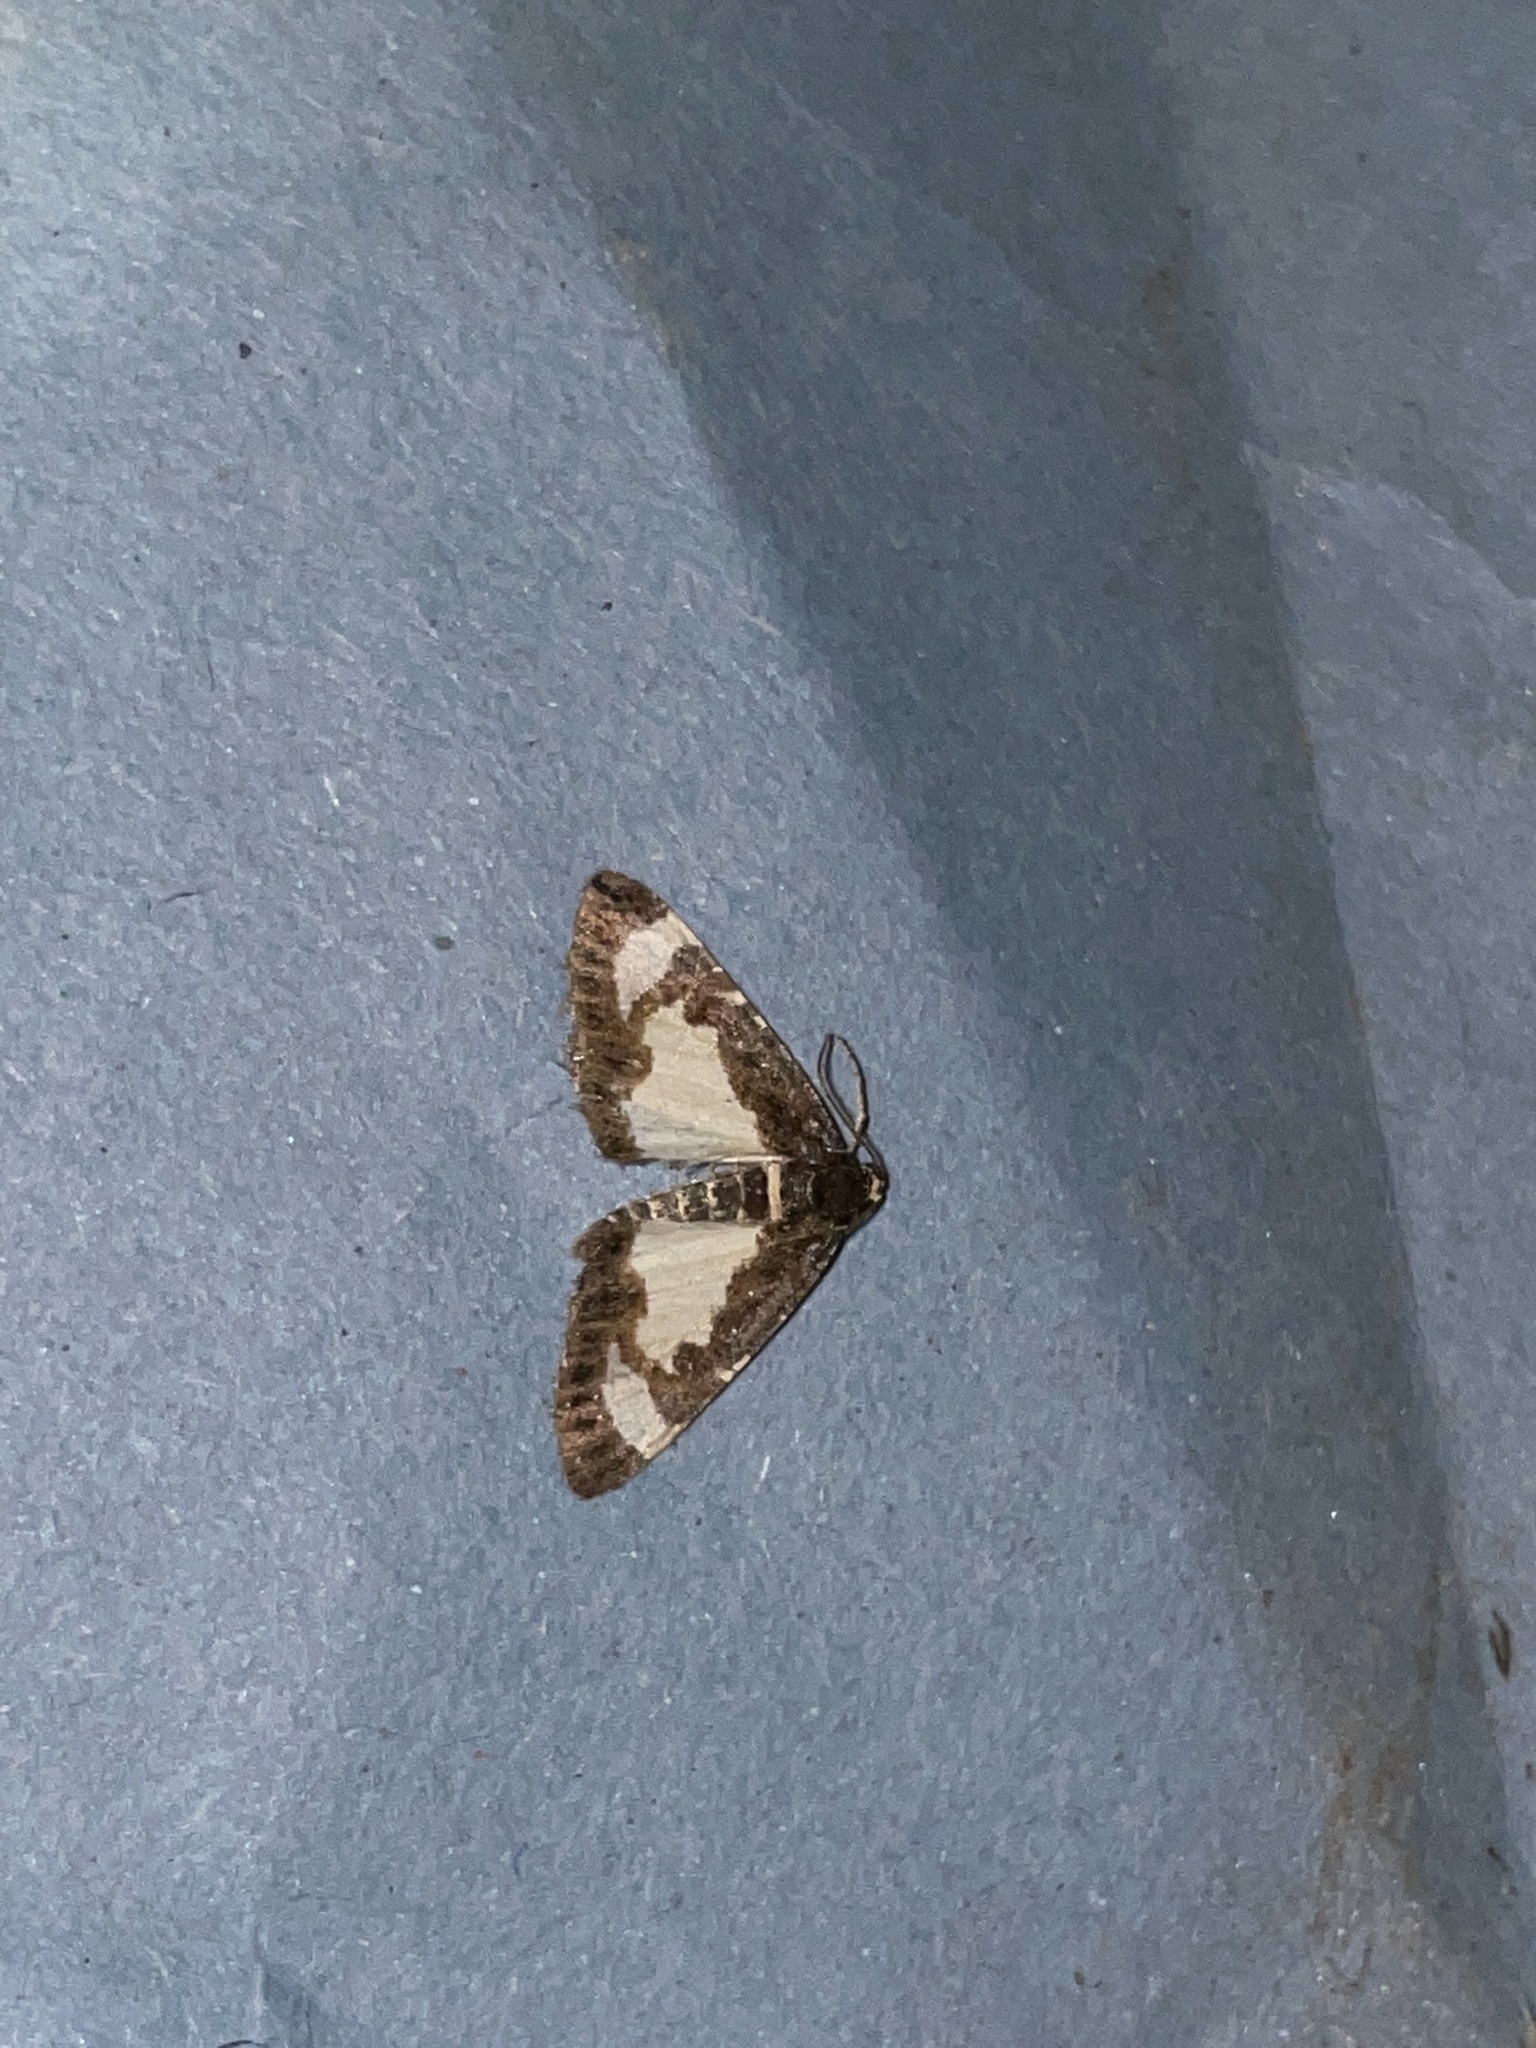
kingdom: Animalia
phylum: Arthropoda
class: Insecta
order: Lepidoptera
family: Geometridae
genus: Heliomata
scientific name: Heliomata cycladata
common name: Common spring moth
